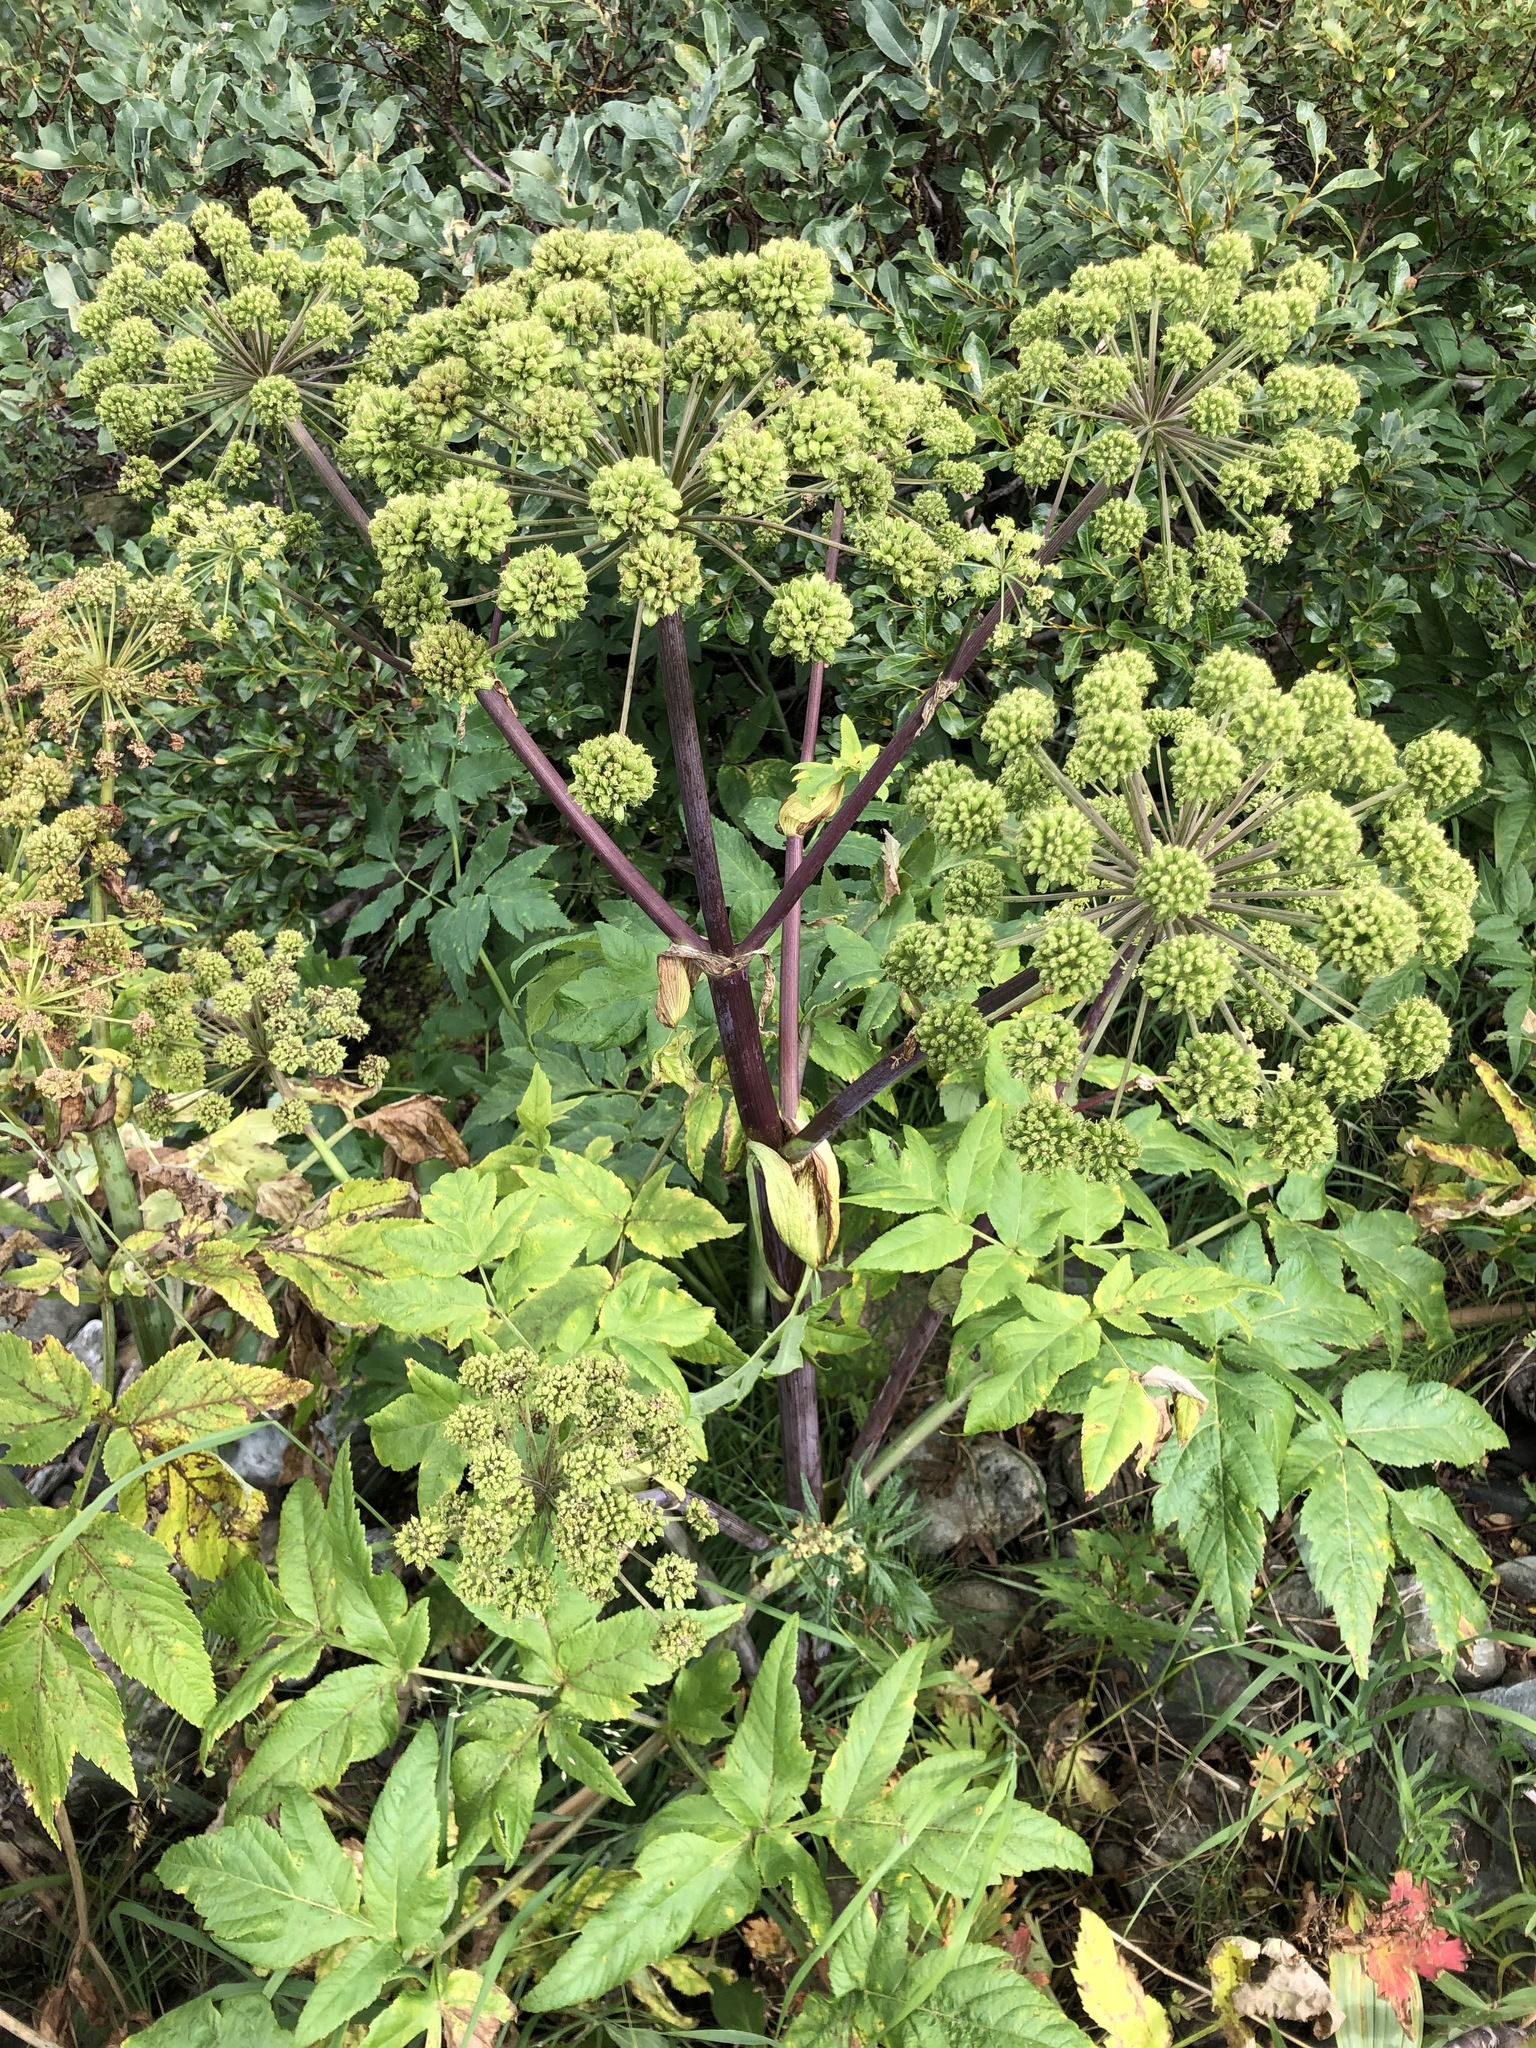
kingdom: Plantae
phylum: Tracheophyta
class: Magnoliopsida
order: Apiales
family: Apiaceae
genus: Angelica
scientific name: Angelica decurrens
